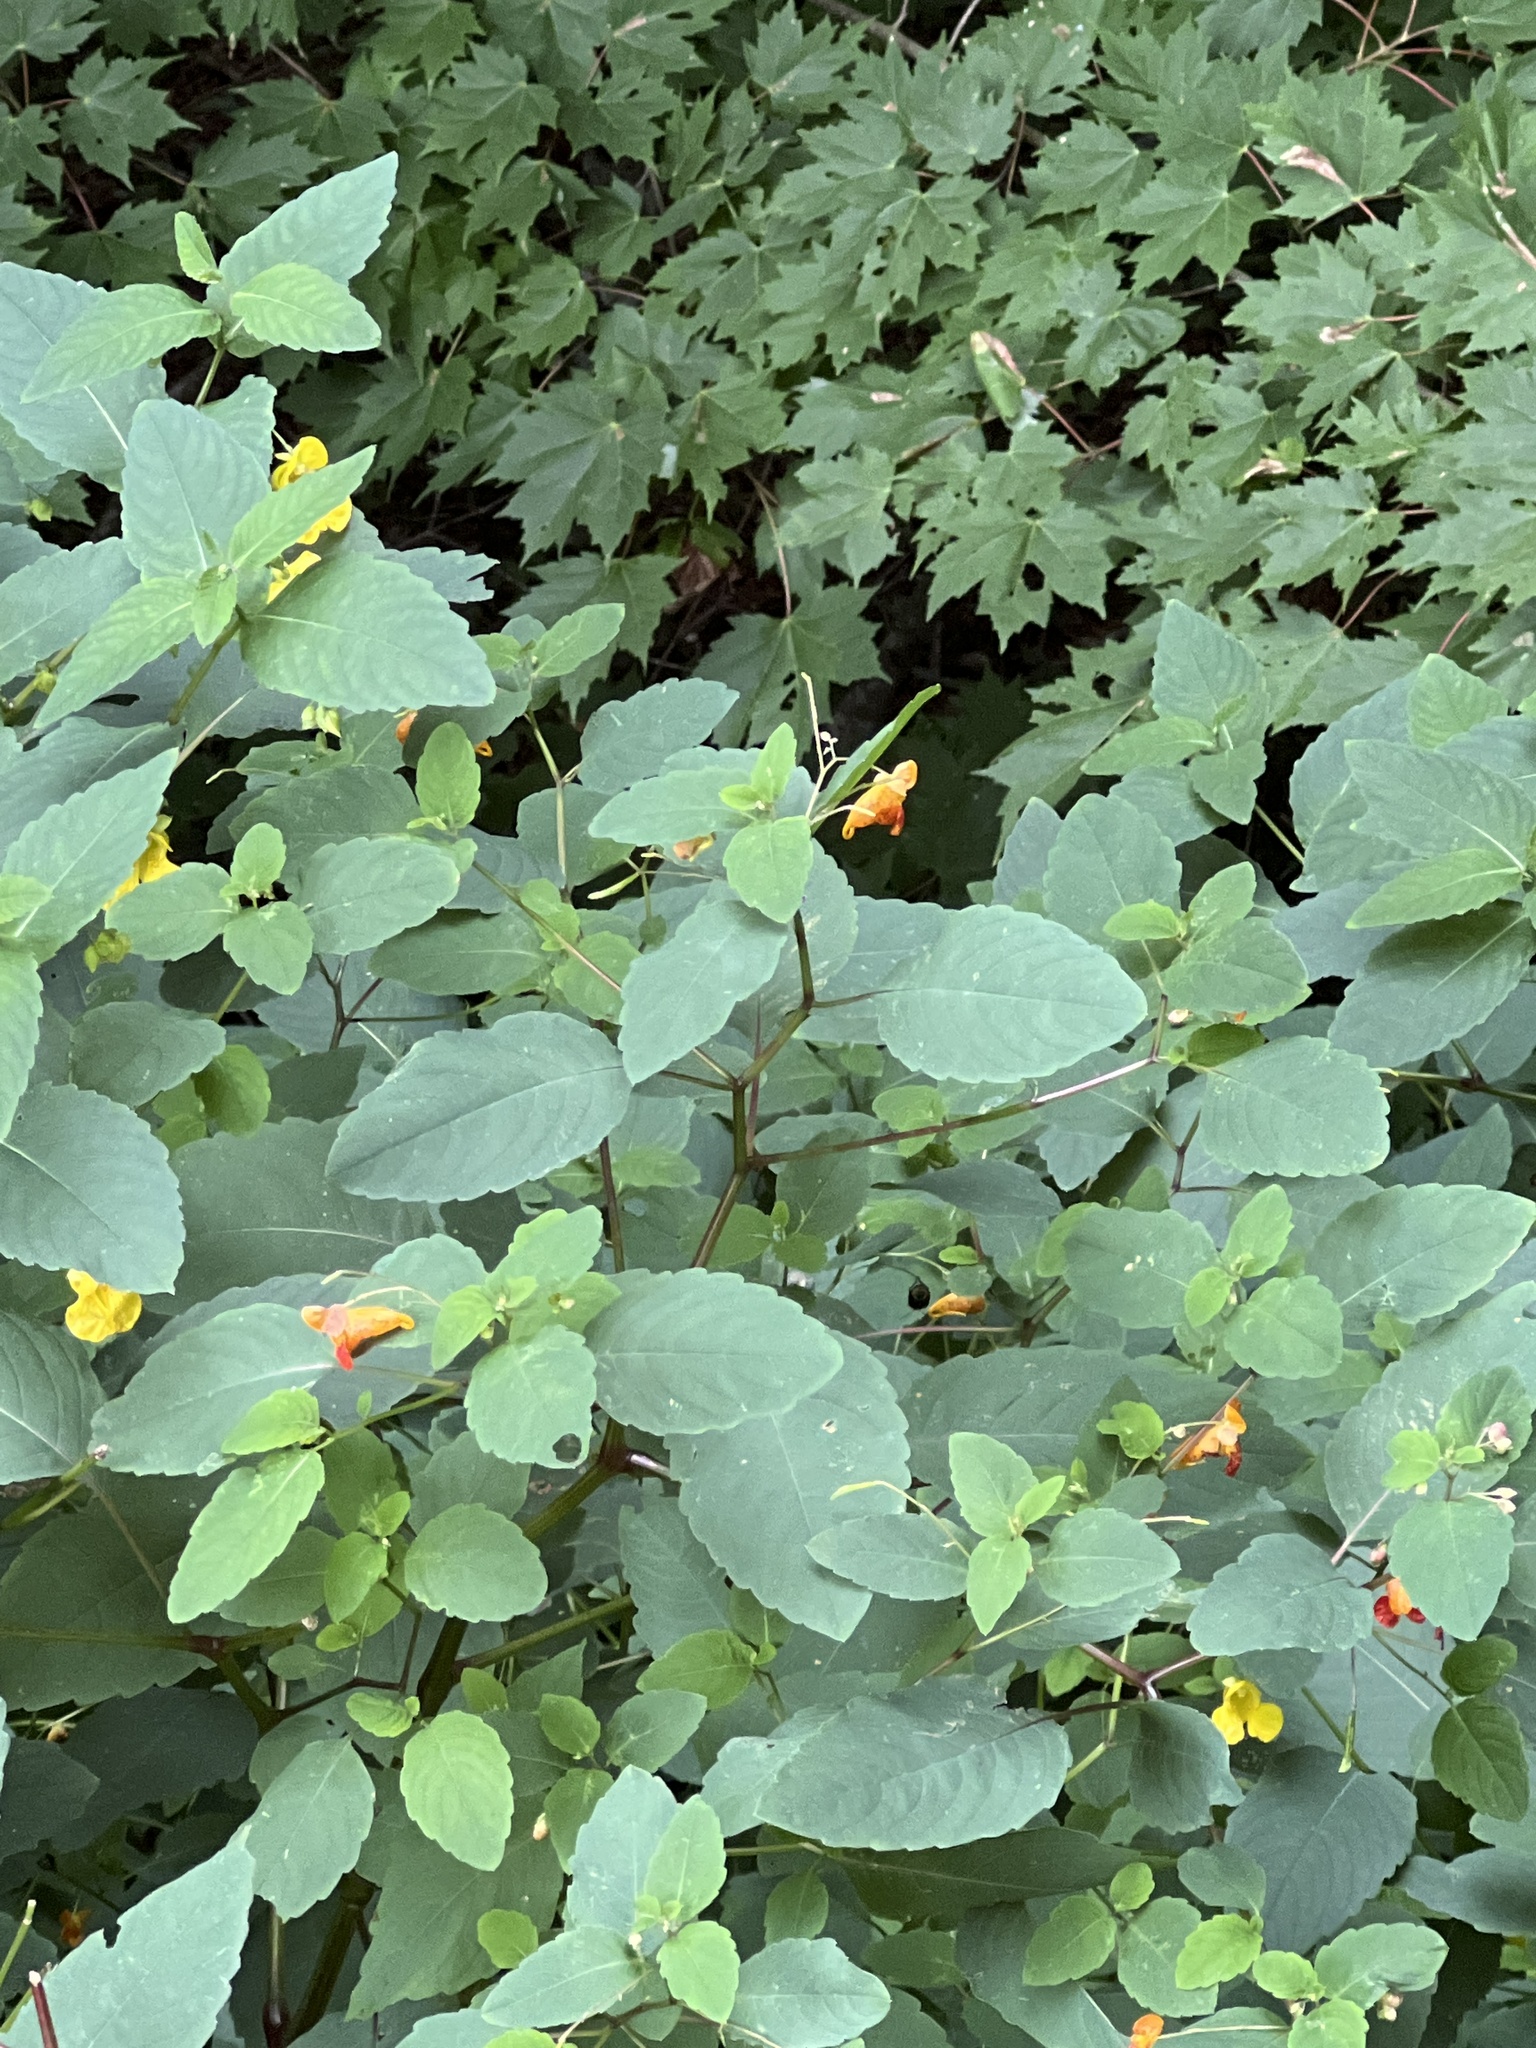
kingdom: Plantae
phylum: Tracheophyta
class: Magnoliopsida
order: Ericales
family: Balsaminaceae
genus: Impatiens
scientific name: Impatiens capensis
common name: Orange balsam
